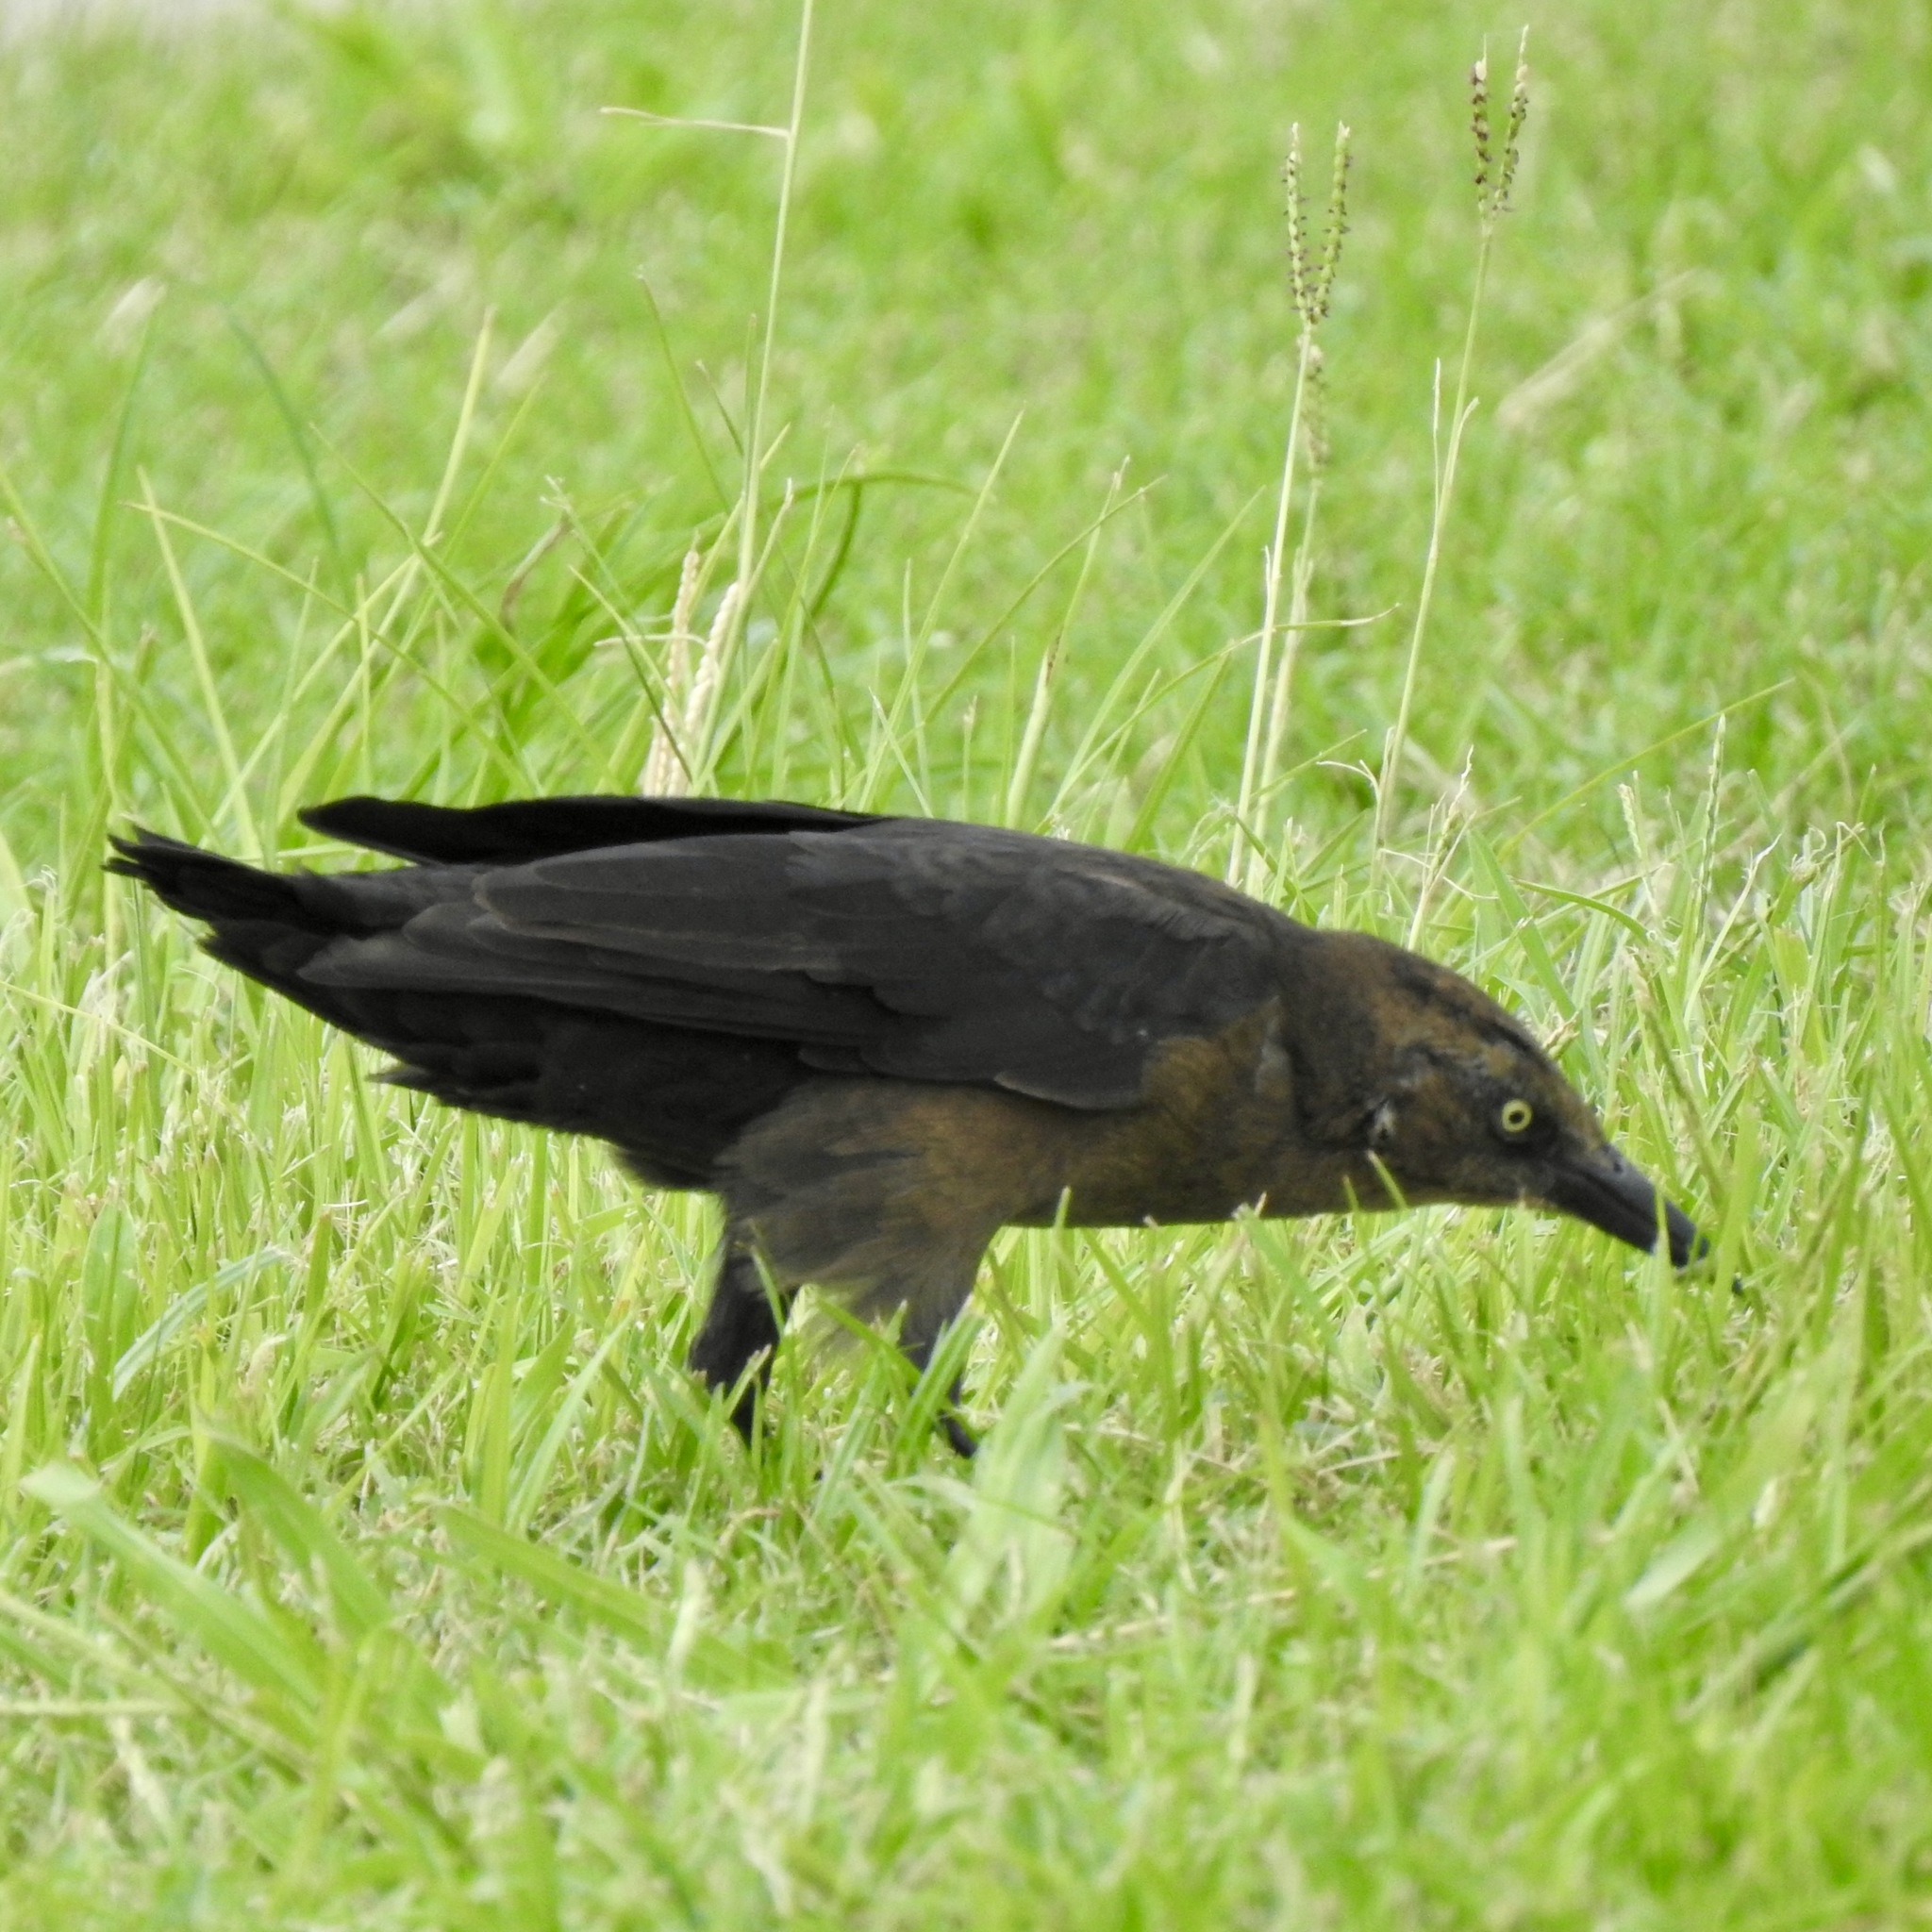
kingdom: Animalia
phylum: Chordata
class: Aves
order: Passeriformes
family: Icteridae
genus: Quiscalus
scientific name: Quiscalus mexicanus
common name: Great-tailed grackle
